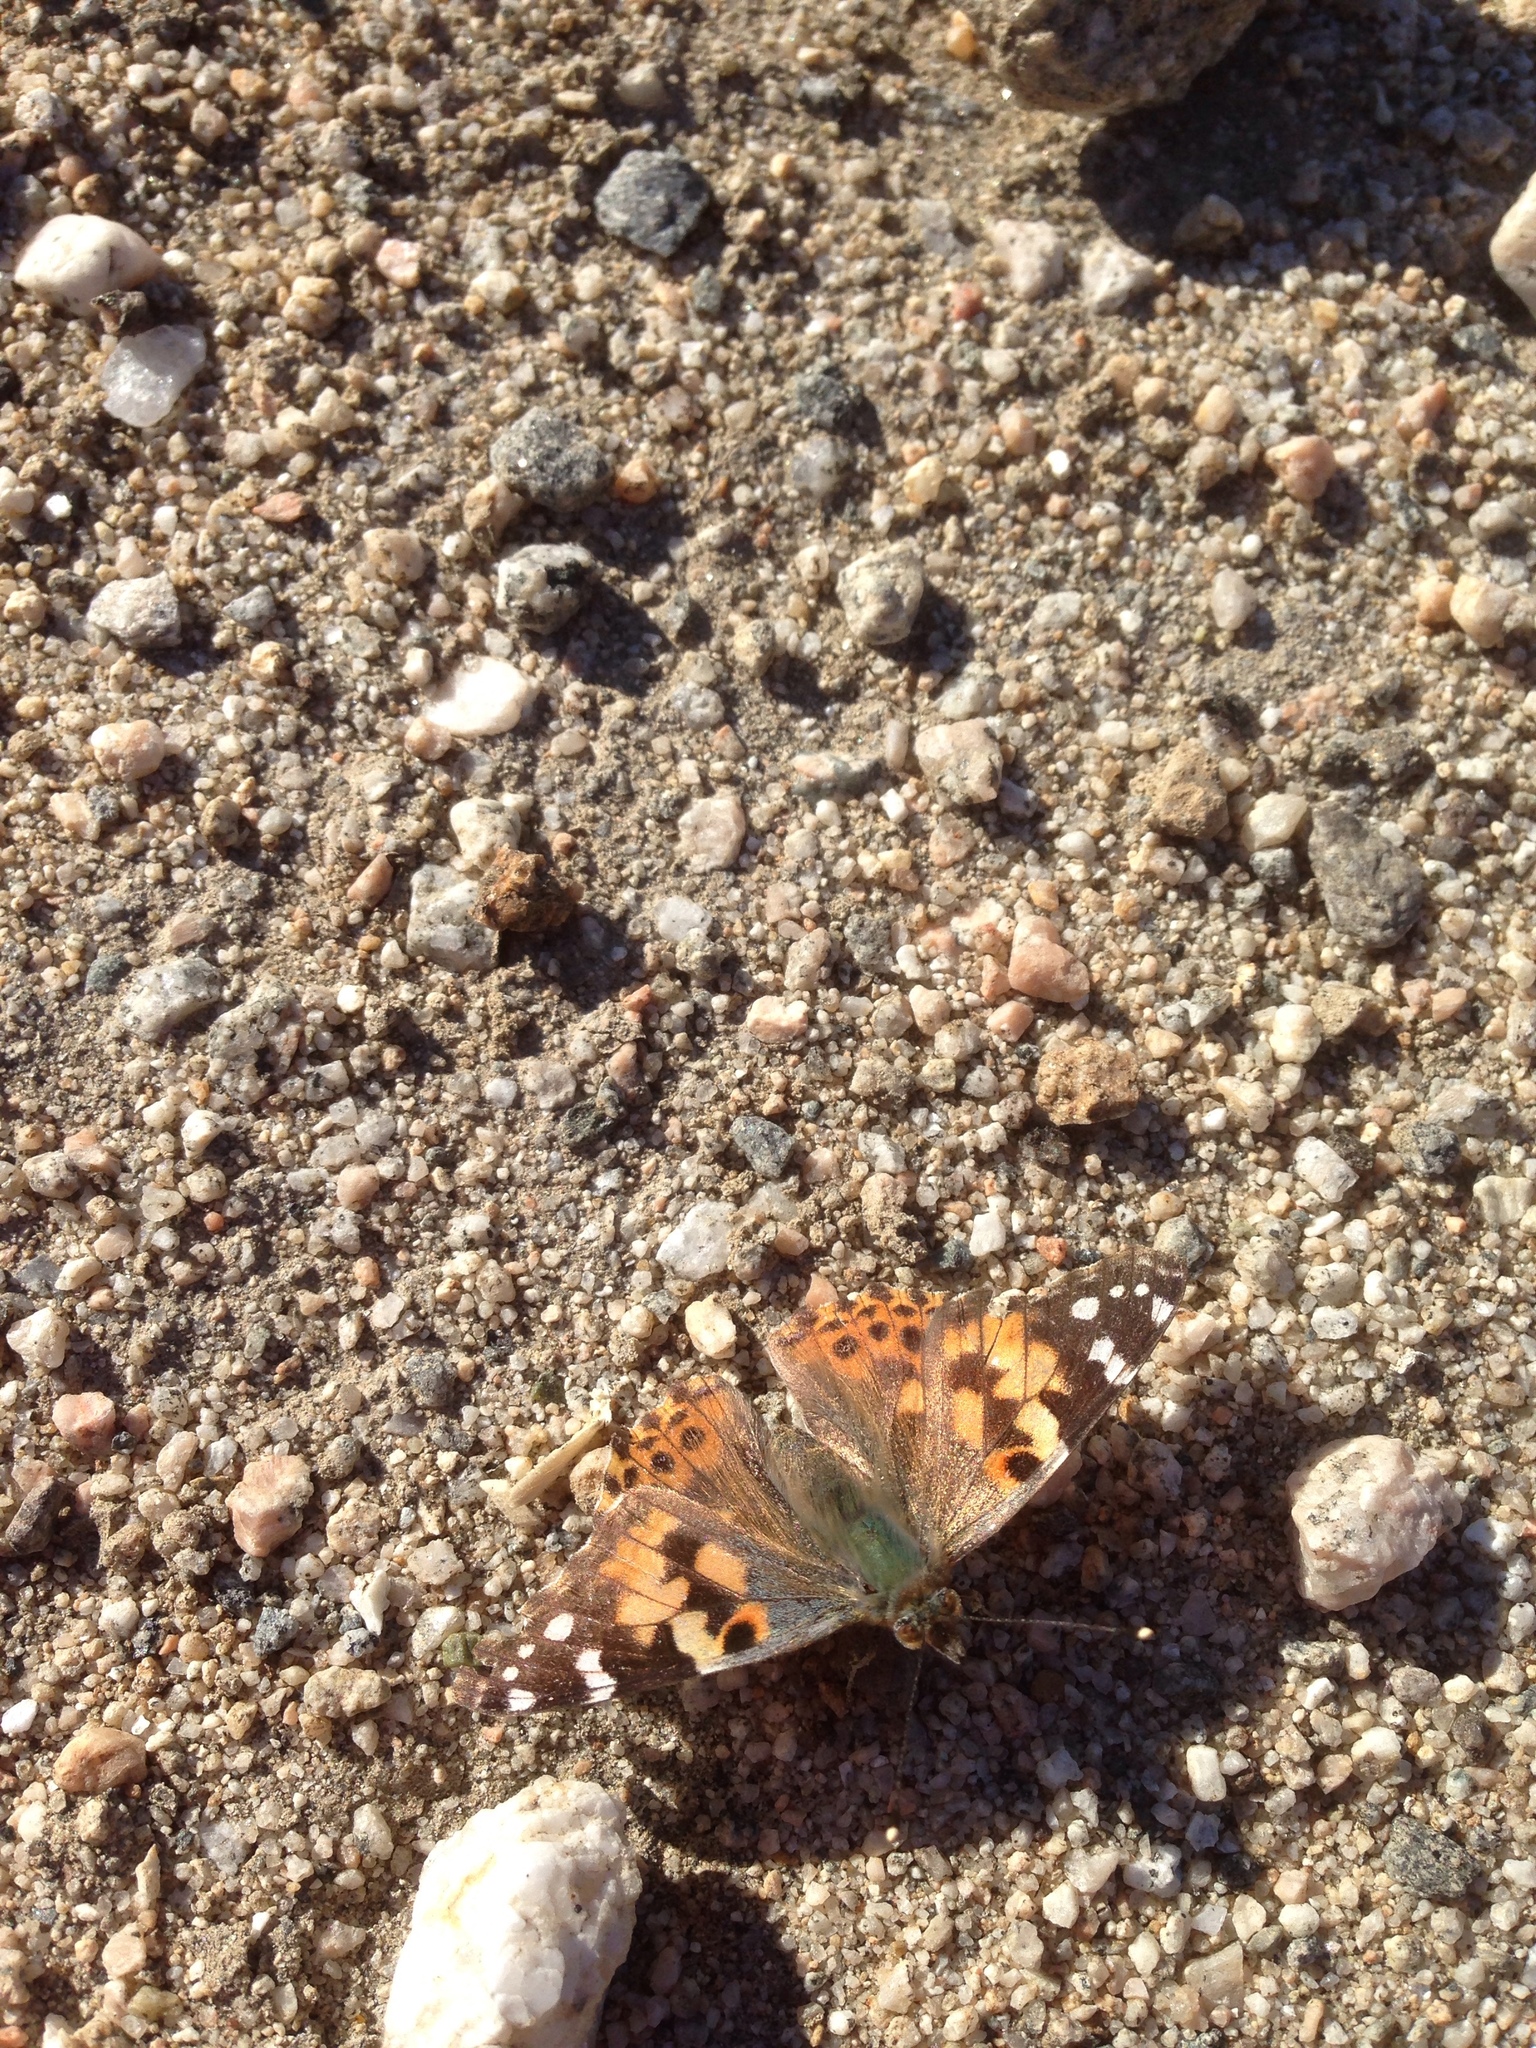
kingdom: Animalia
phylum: Arthropoda
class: Insecta
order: Lepidoptera
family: Nymphalidae
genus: Vanessa
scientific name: Vanessa cardui
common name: Painted lady
